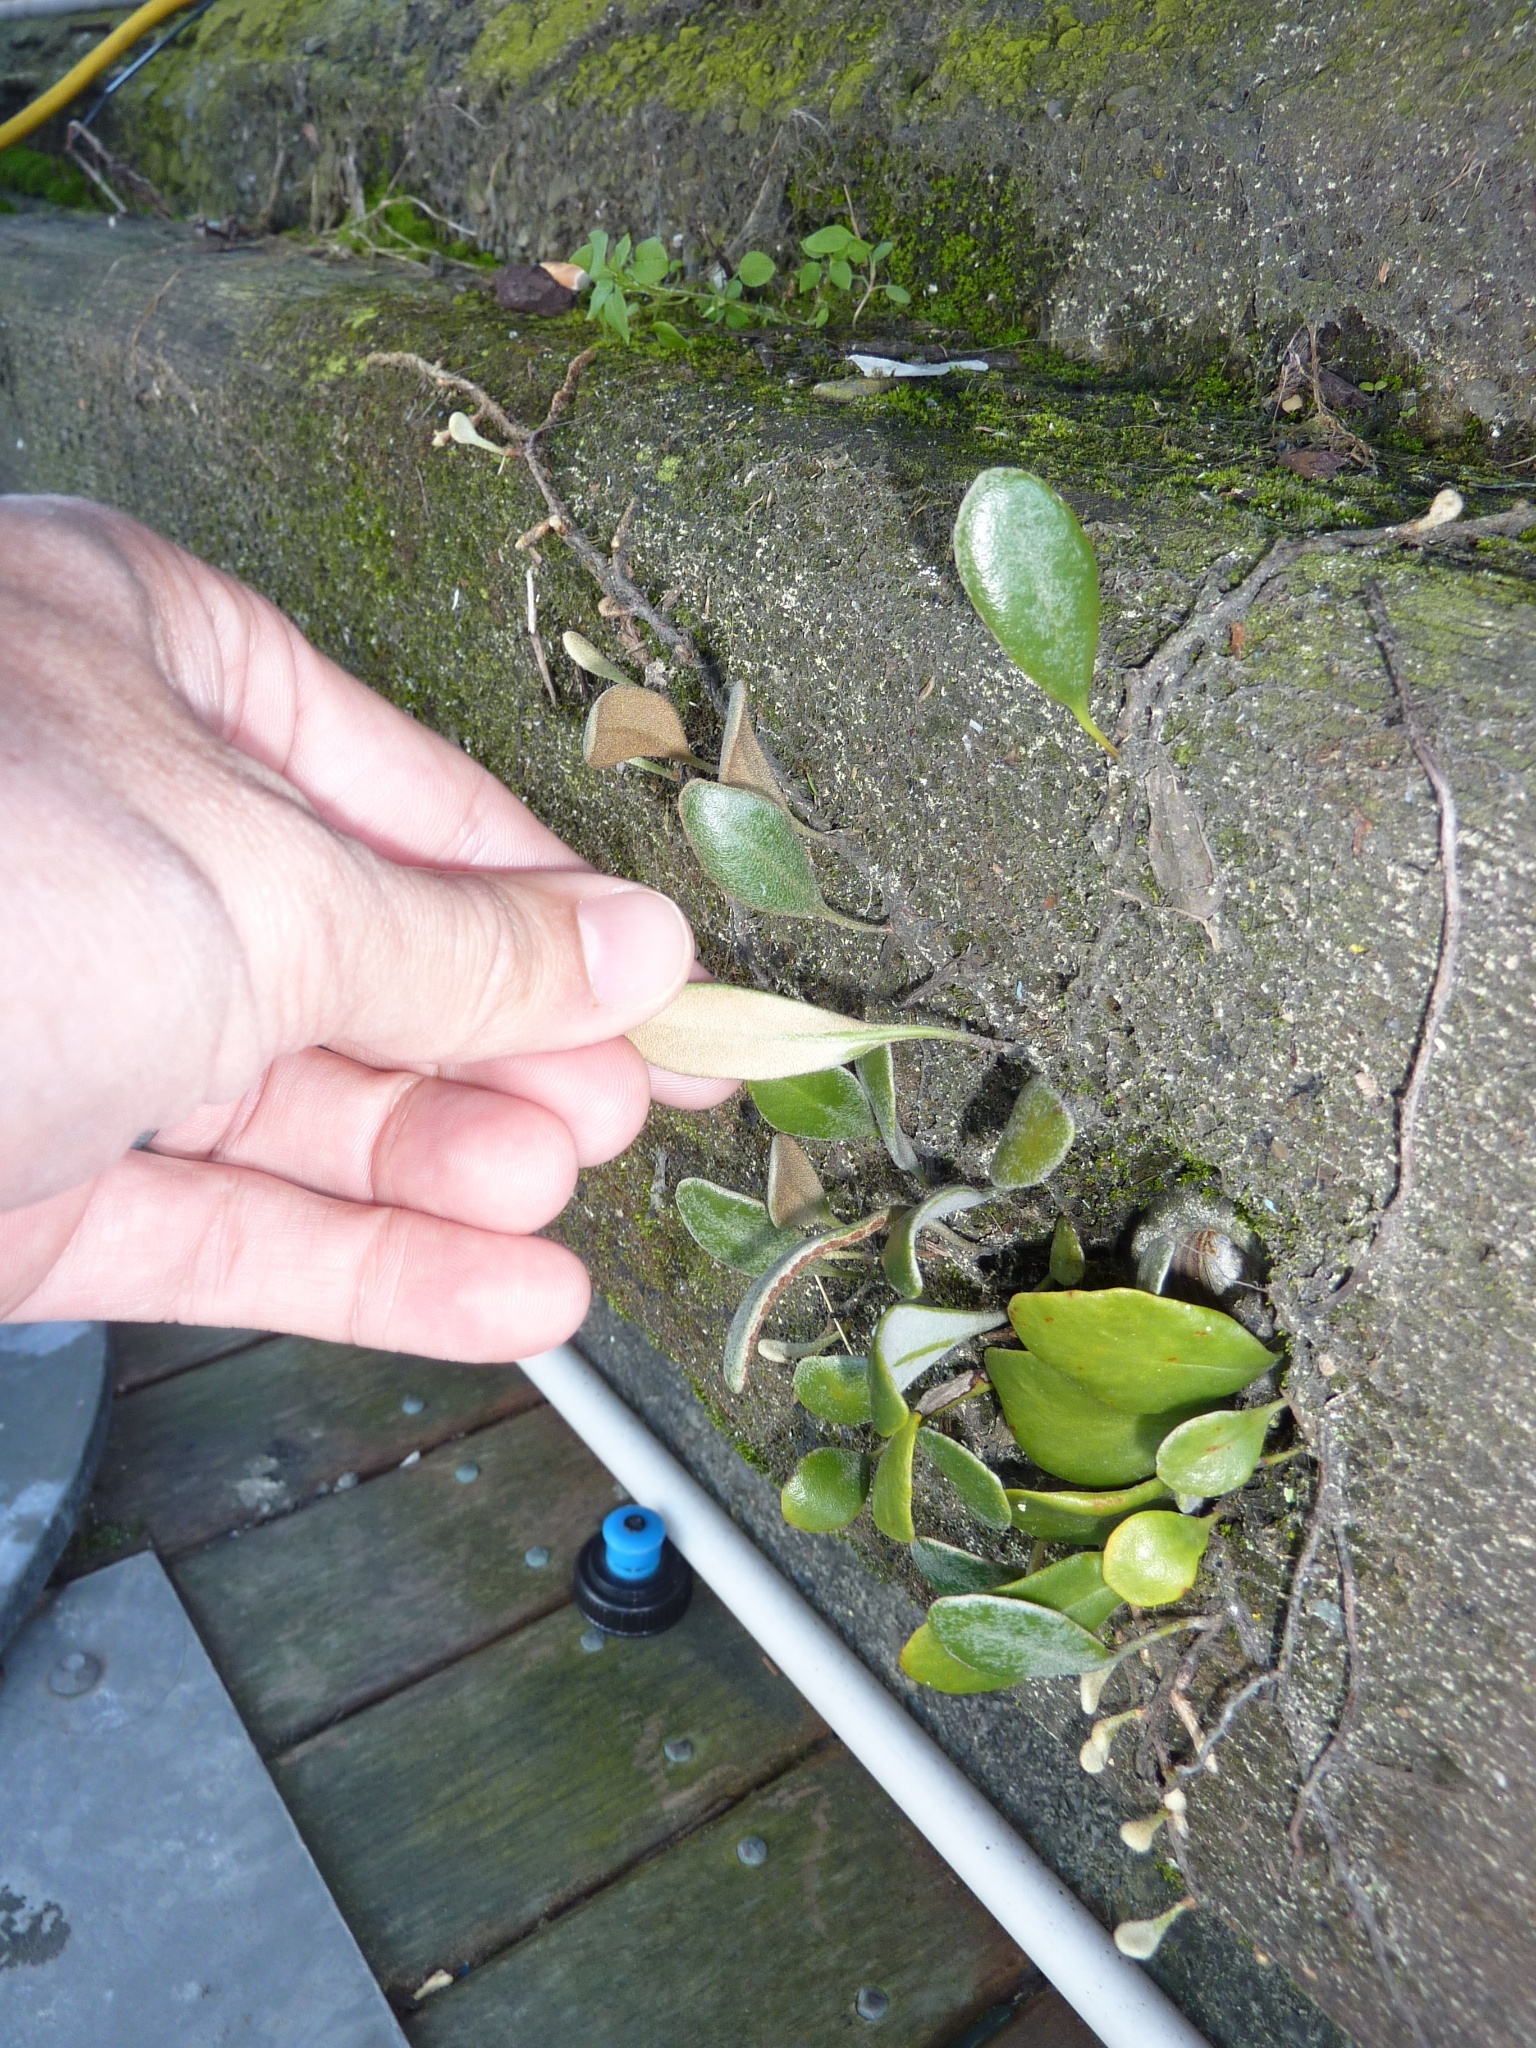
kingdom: Plantae
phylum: Tracheophyta
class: Polypodiopsida
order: Polypodiales
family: Polypodiaceae
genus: Pyrrosia
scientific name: Pyrrosia eleagnifolia
